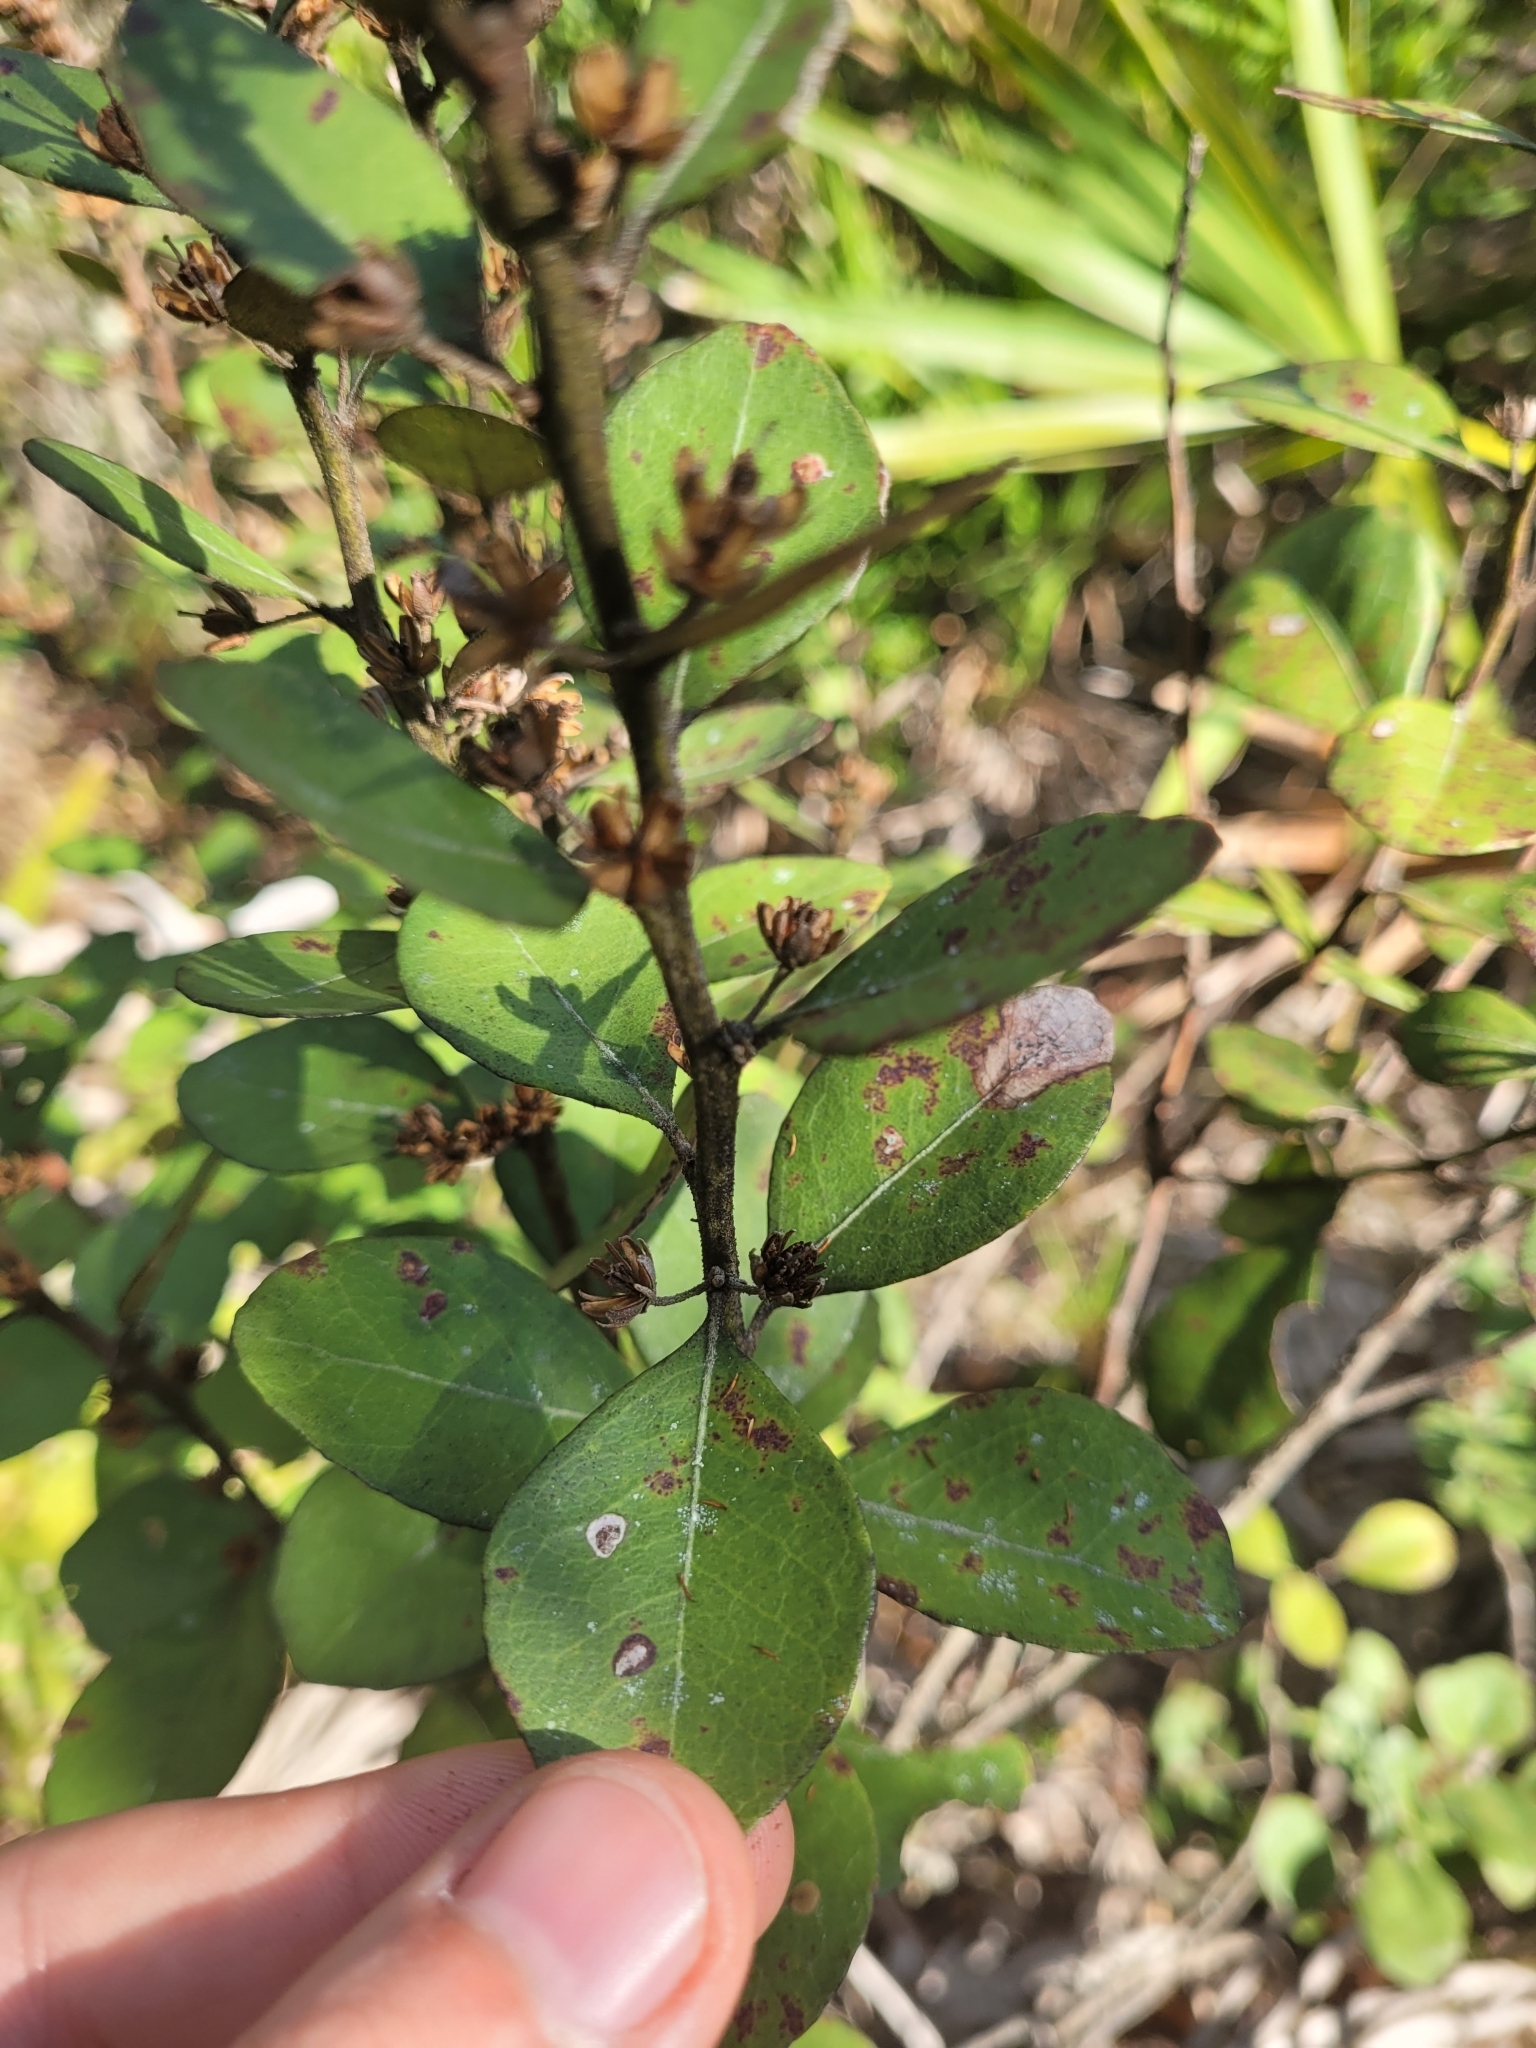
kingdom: Plantae
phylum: Tracheophyta
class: Magnoliopsida
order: Ericales
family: Ericaceae
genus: Lyonia
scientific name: Lyonia fruticosa
